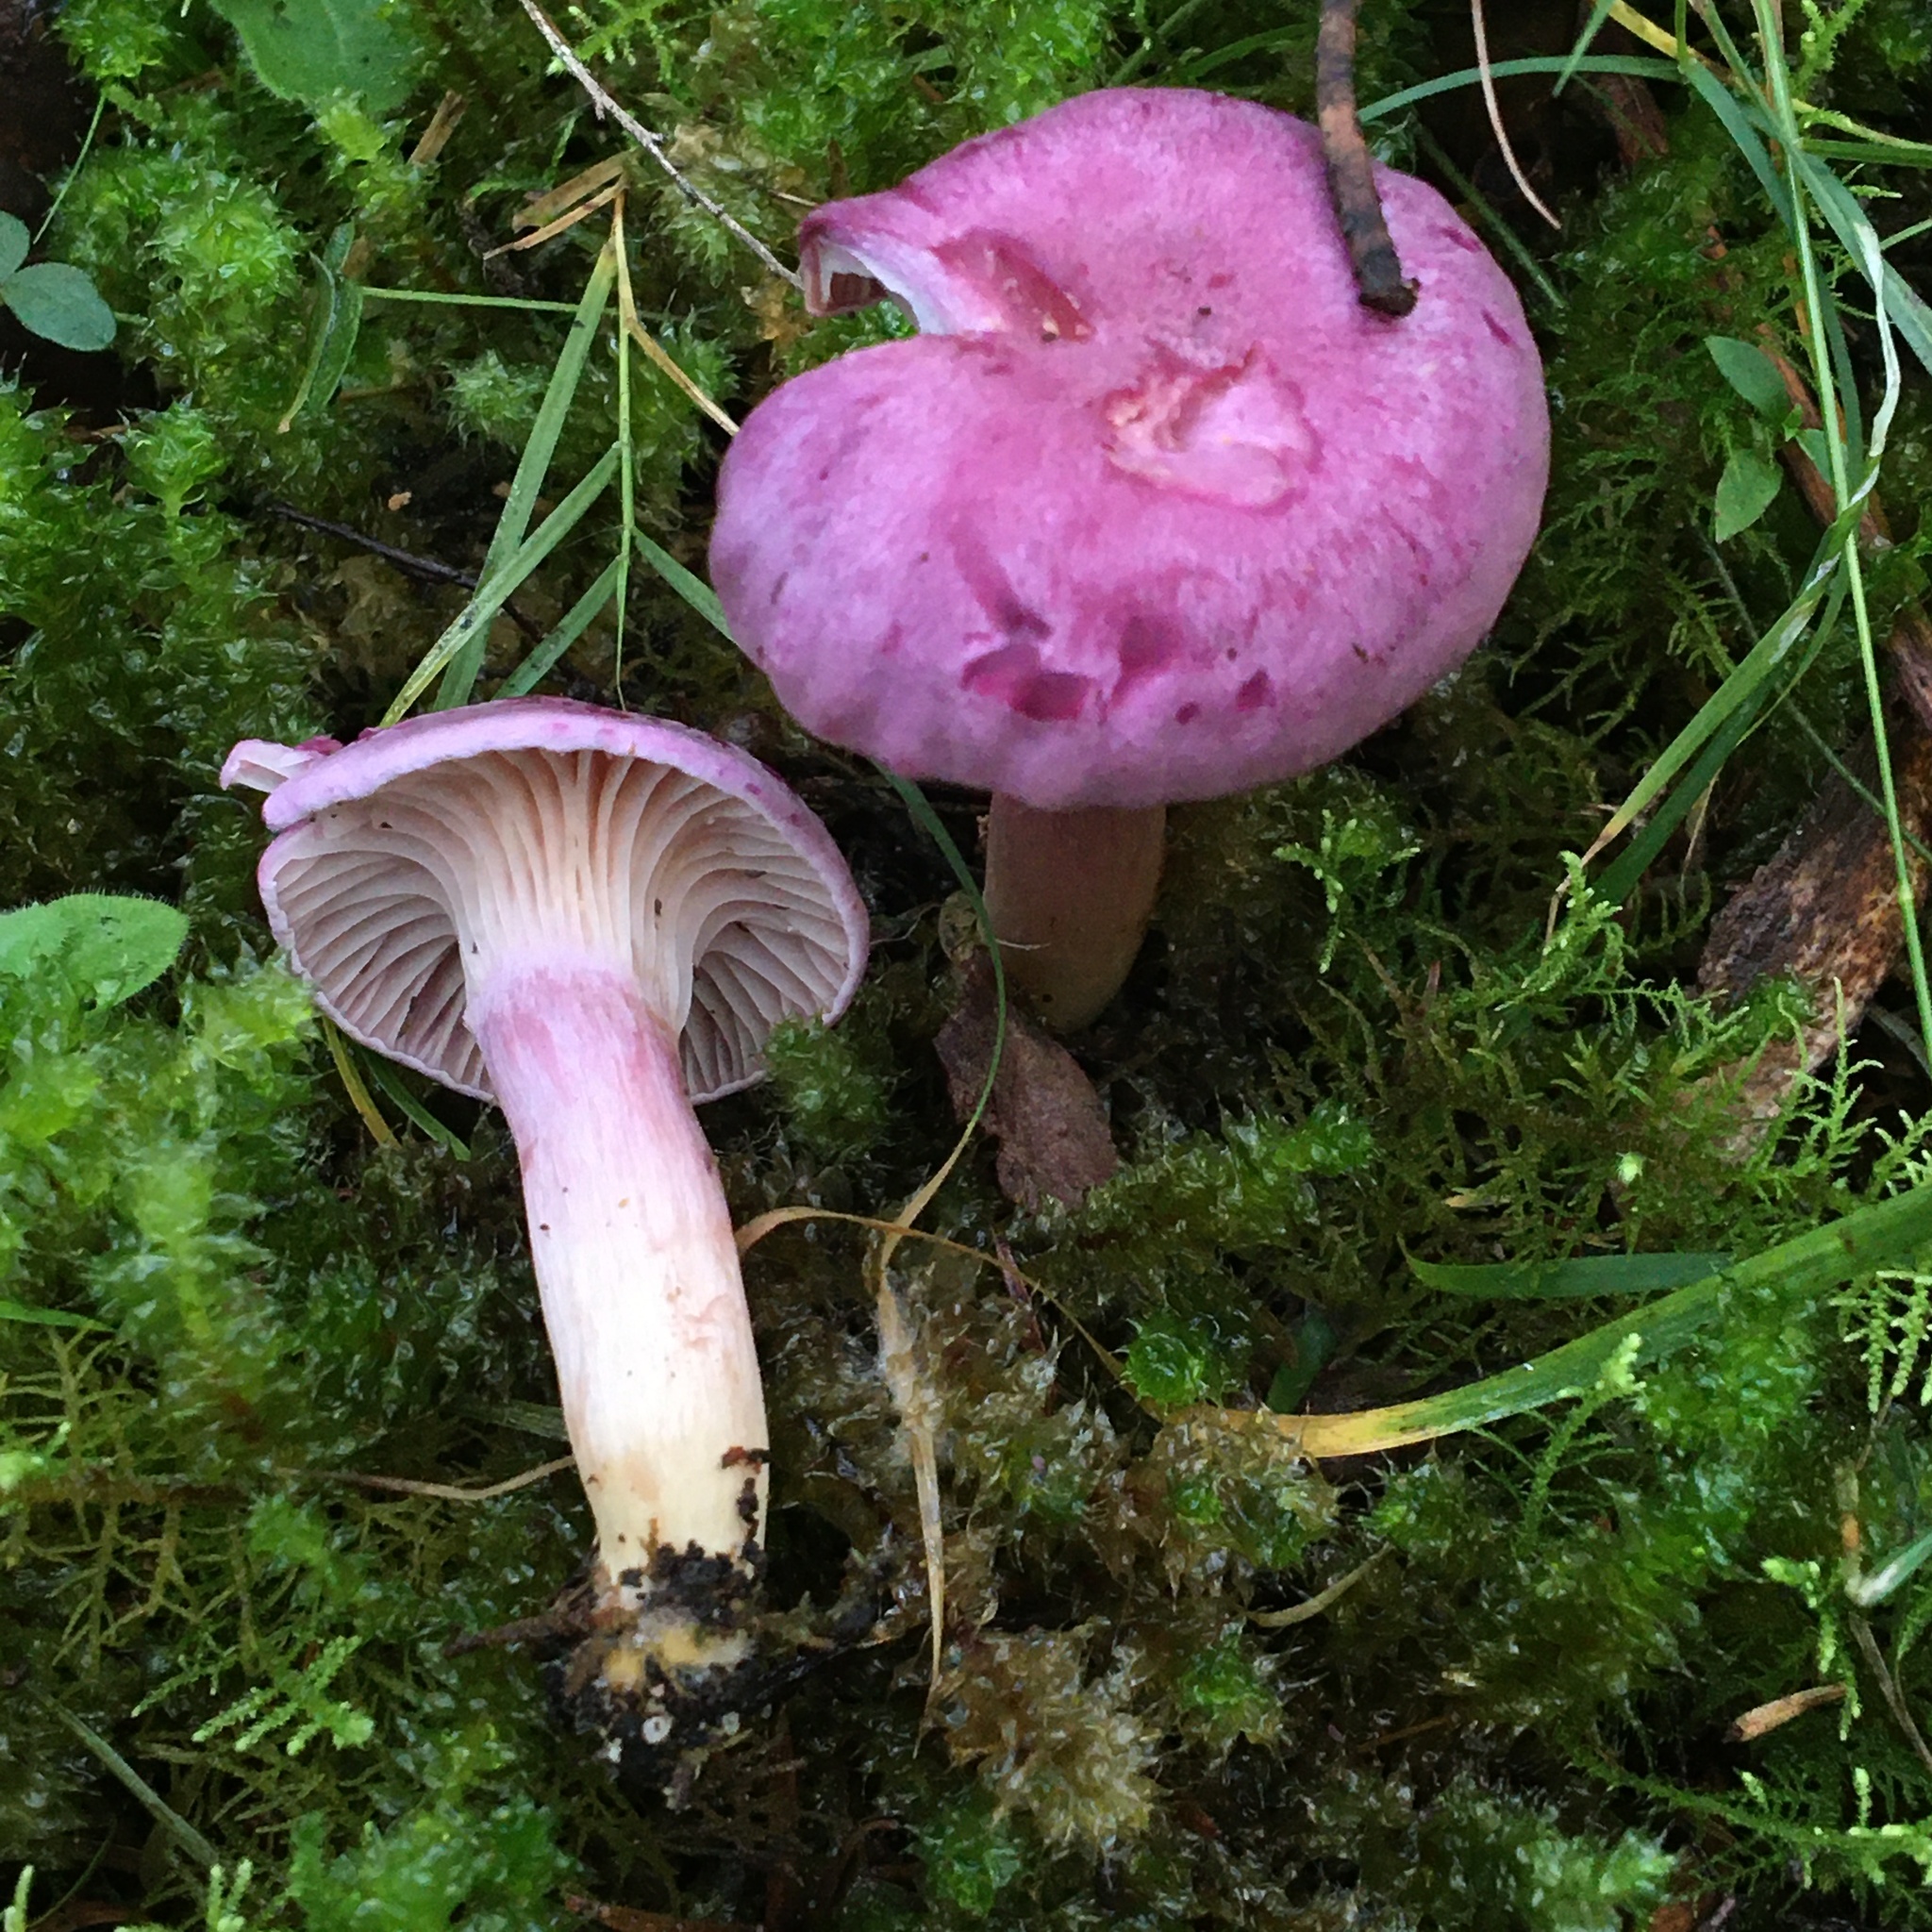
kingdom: Fungi
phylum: Basidiomycota
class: Agaricomycetes
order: Agaricales
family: Hygrophoraceae
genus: Cuphophyllus
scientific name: Cuphophyllus
